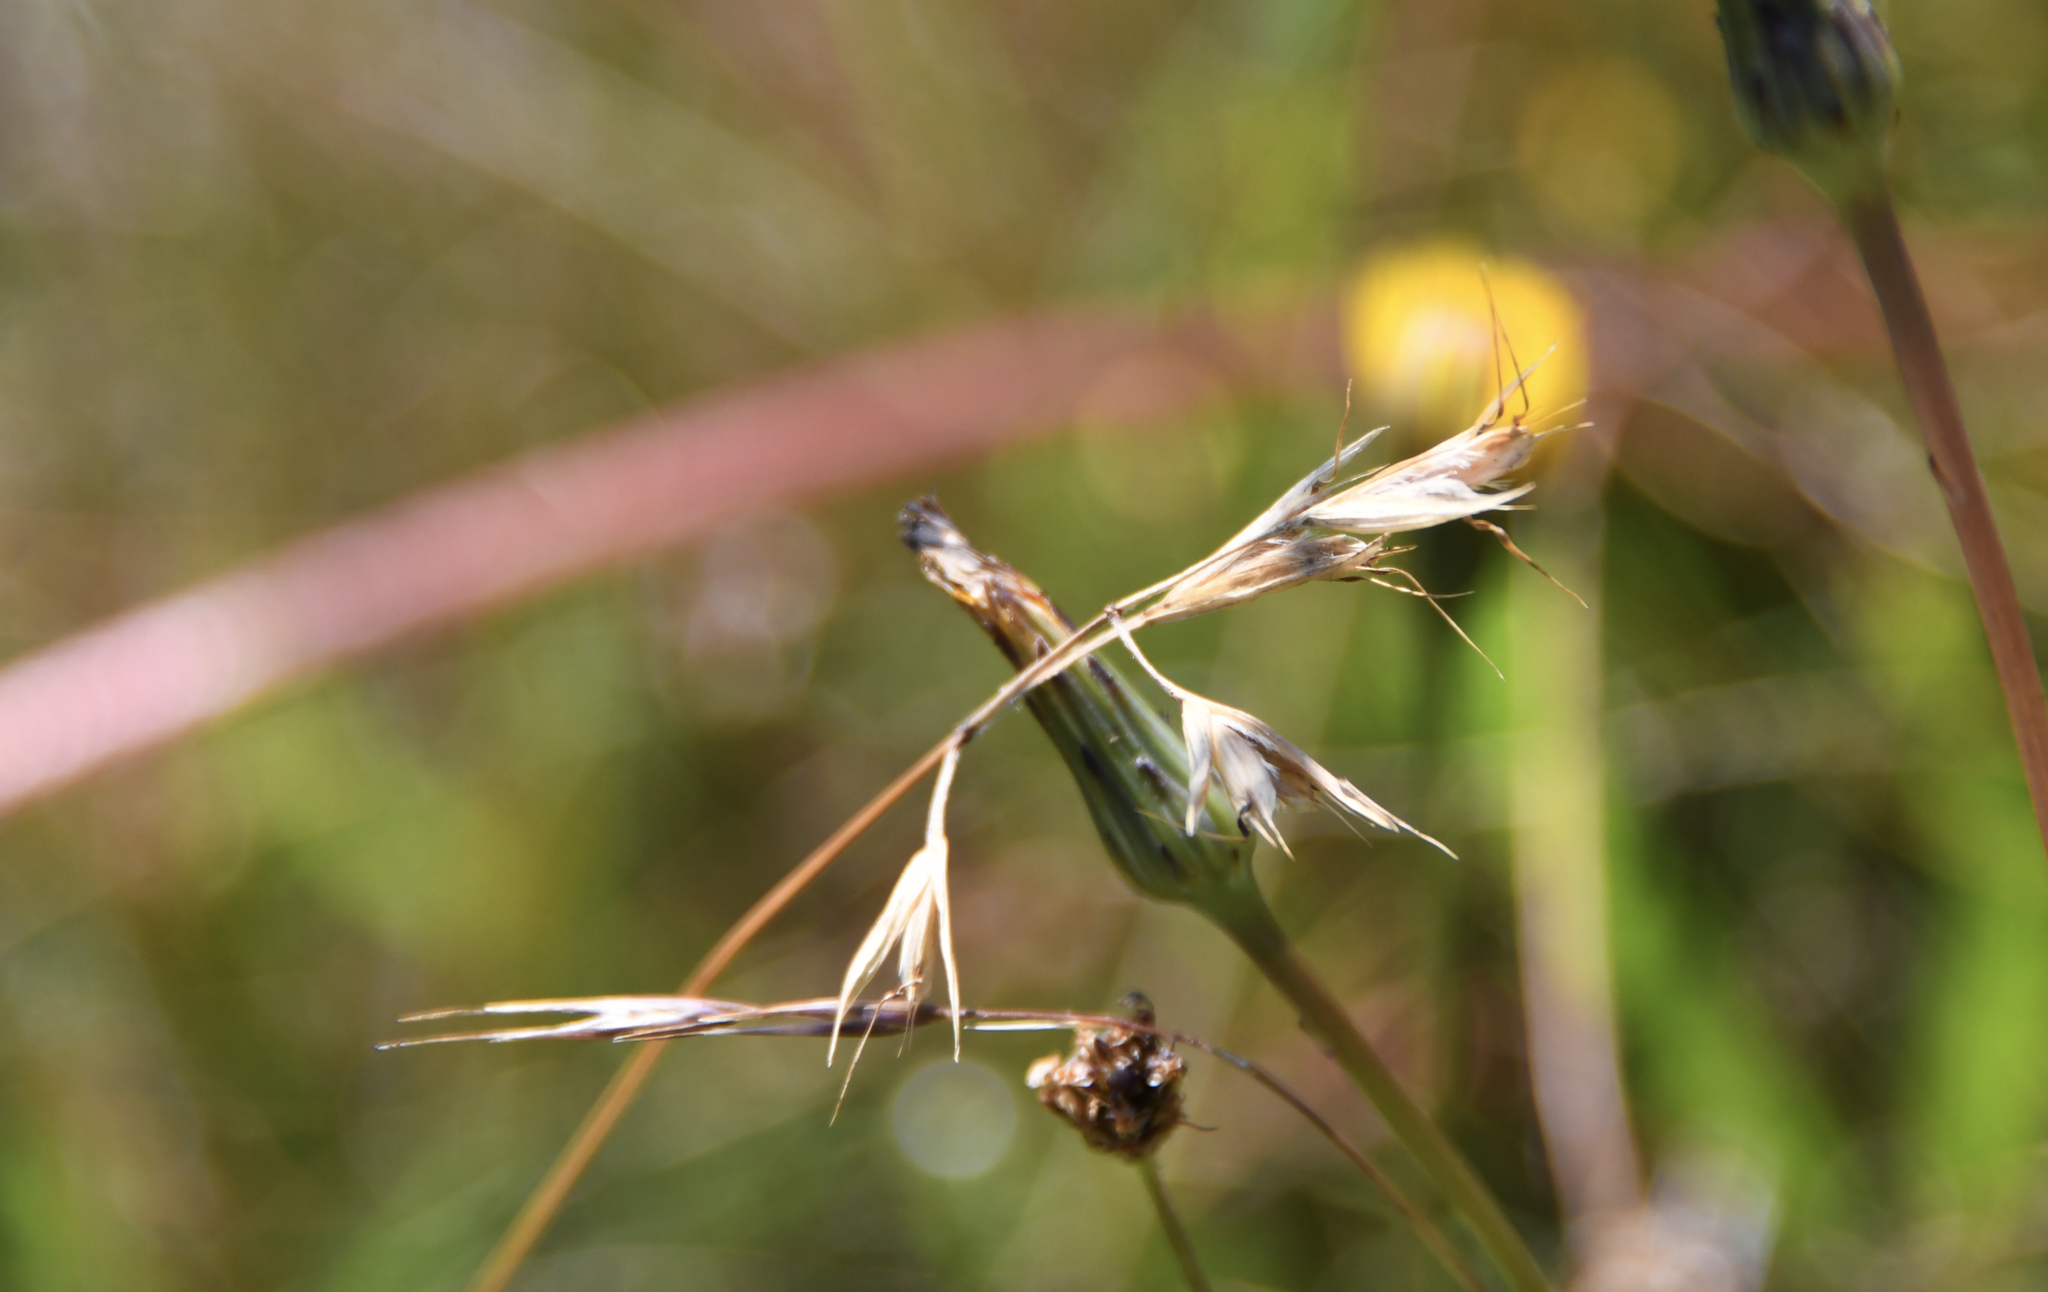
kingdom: Plantae
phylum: Tracheophyta
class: Liliopsida
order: Poales
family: Poaceae
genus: Danthonia
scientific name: Danthonia californica
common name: California oat grass
